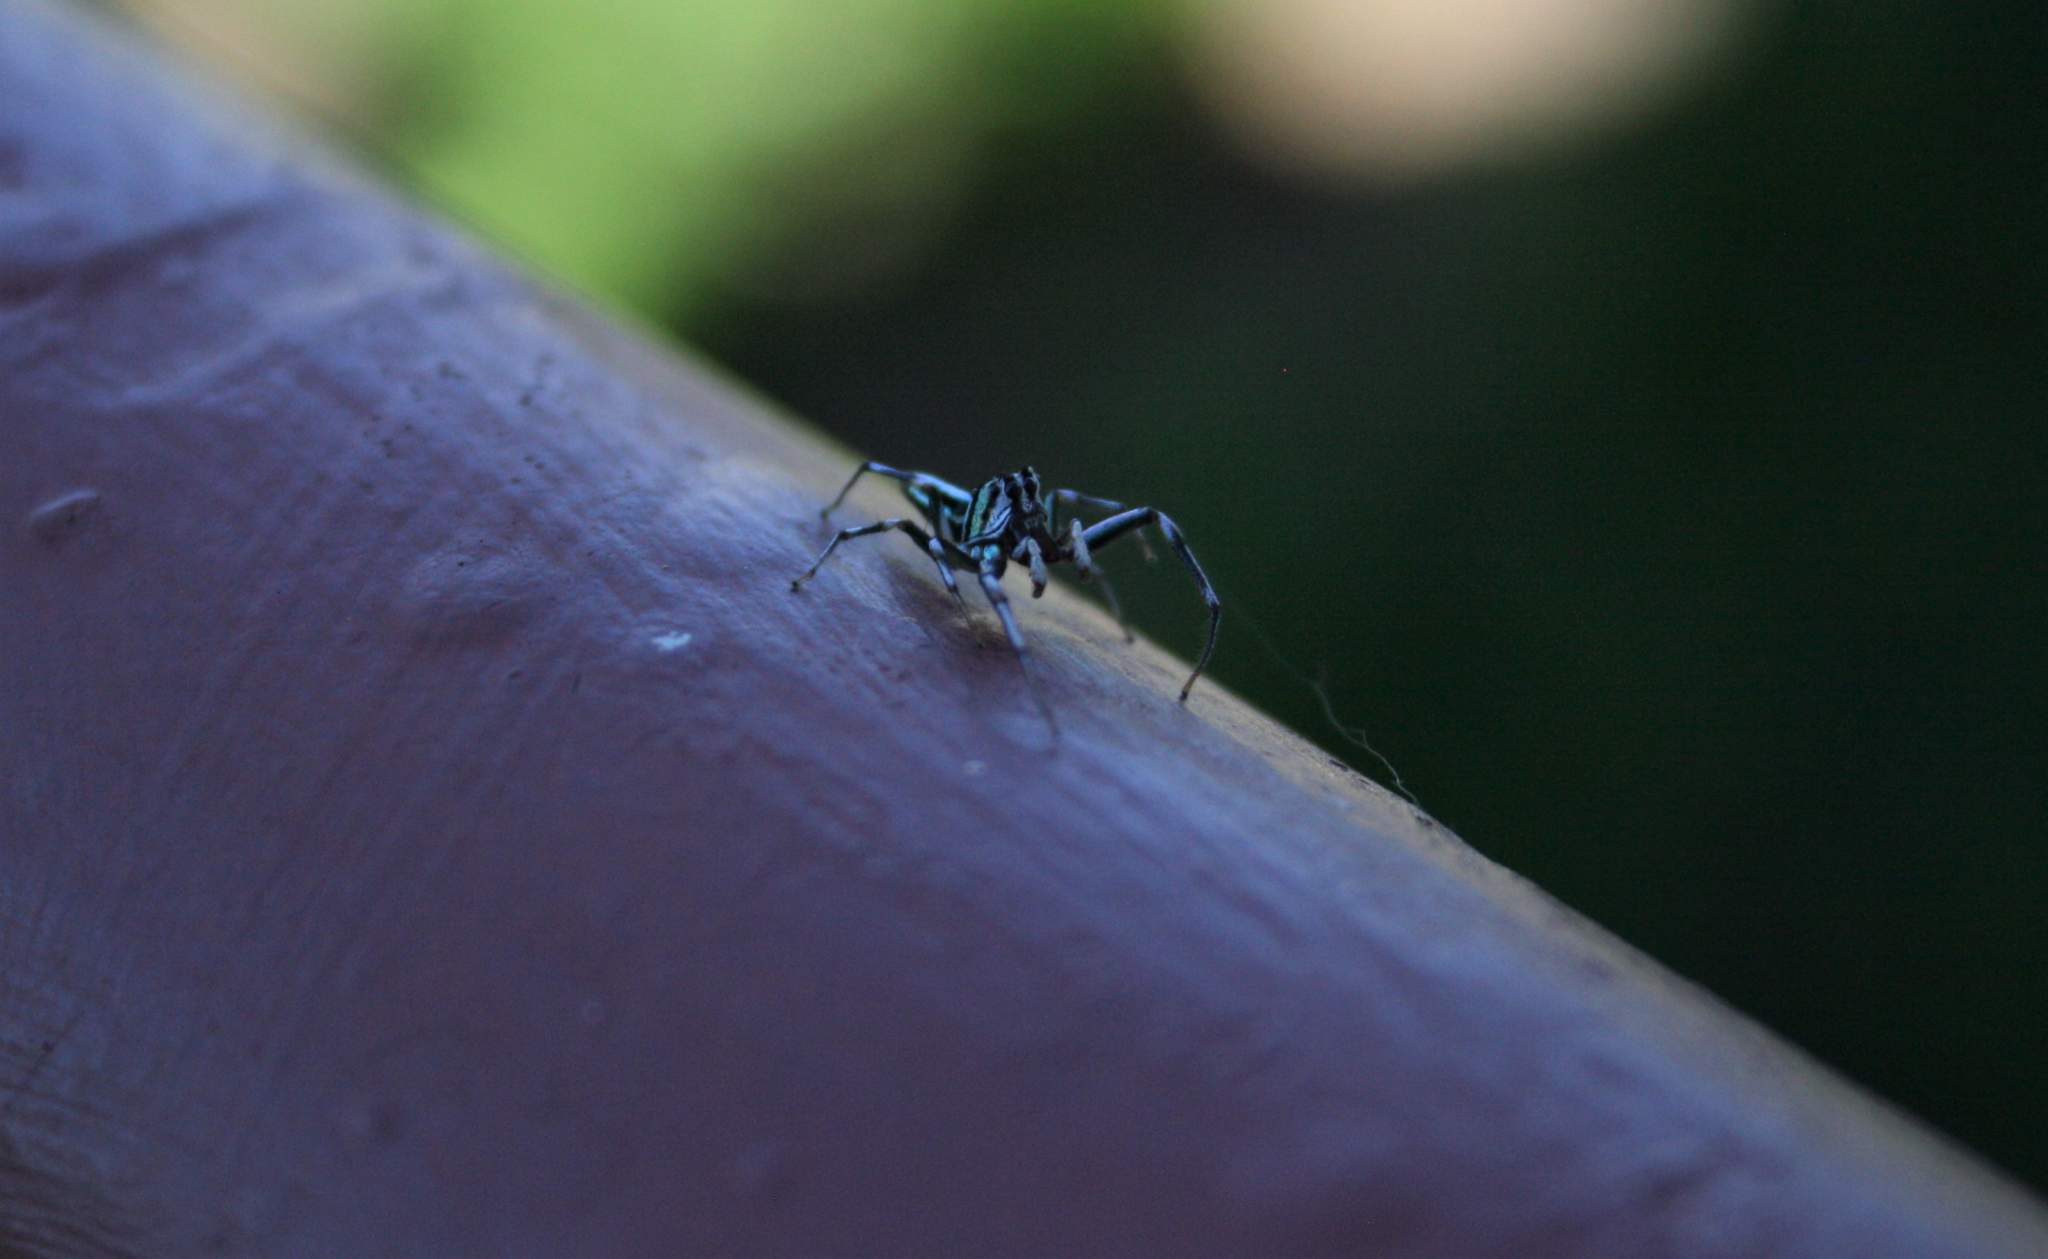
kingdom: Animalia
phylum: Arthropoda
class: Arachnida
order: Araneae
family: Salticidae
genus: Cosmophasis
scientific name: Cosmophasis micarioides
